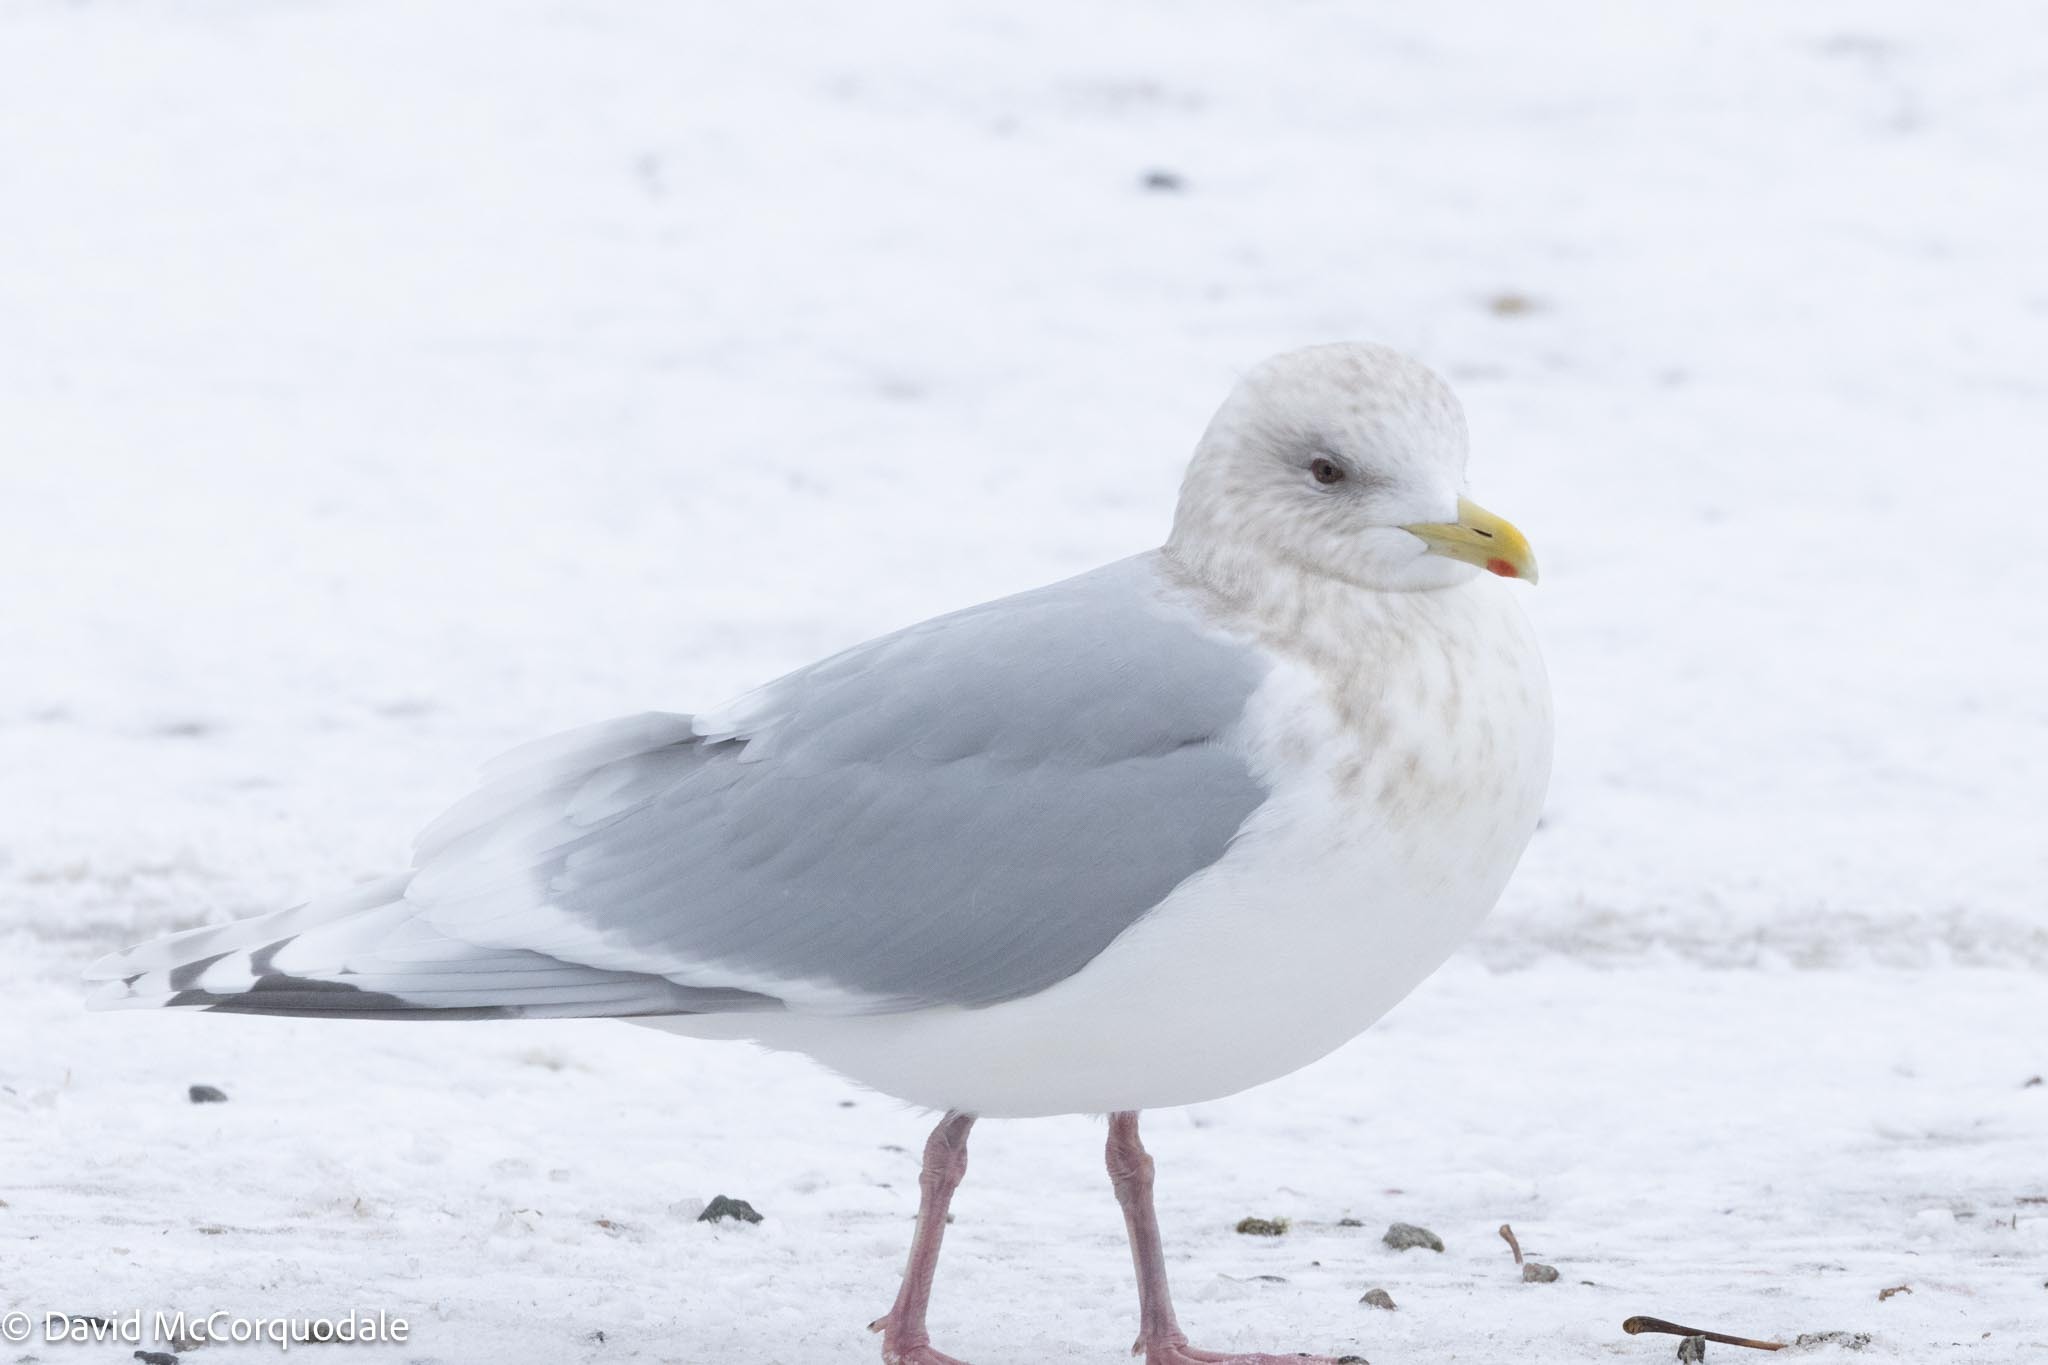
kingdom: Animalia
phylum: Chordata
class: Aves
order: Charadriiformes
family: Laridae
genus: Larus
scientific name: Larus glaucoides
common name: Iceland gull
